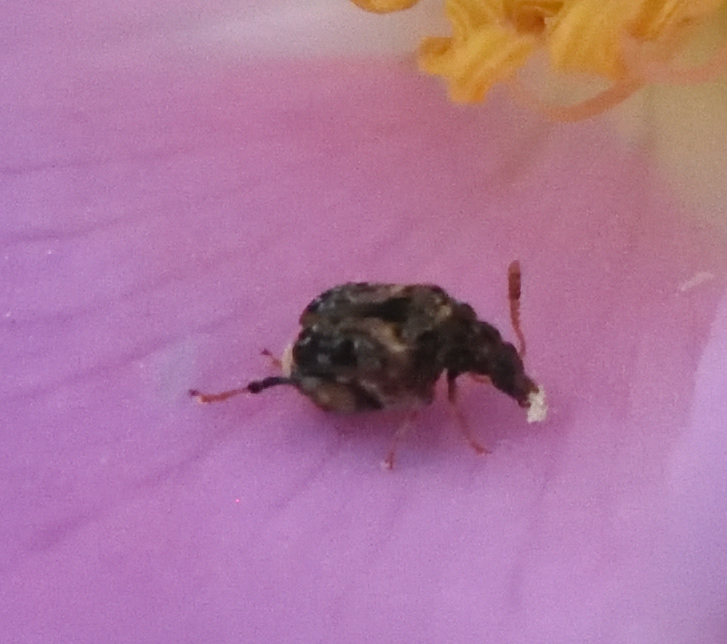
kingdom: Animalia
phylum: Arthropoda
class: Insecta
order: Coleoptera
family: Chrysomelidae
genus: Gibbobruchus
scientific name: Gibbobruchus mimus
